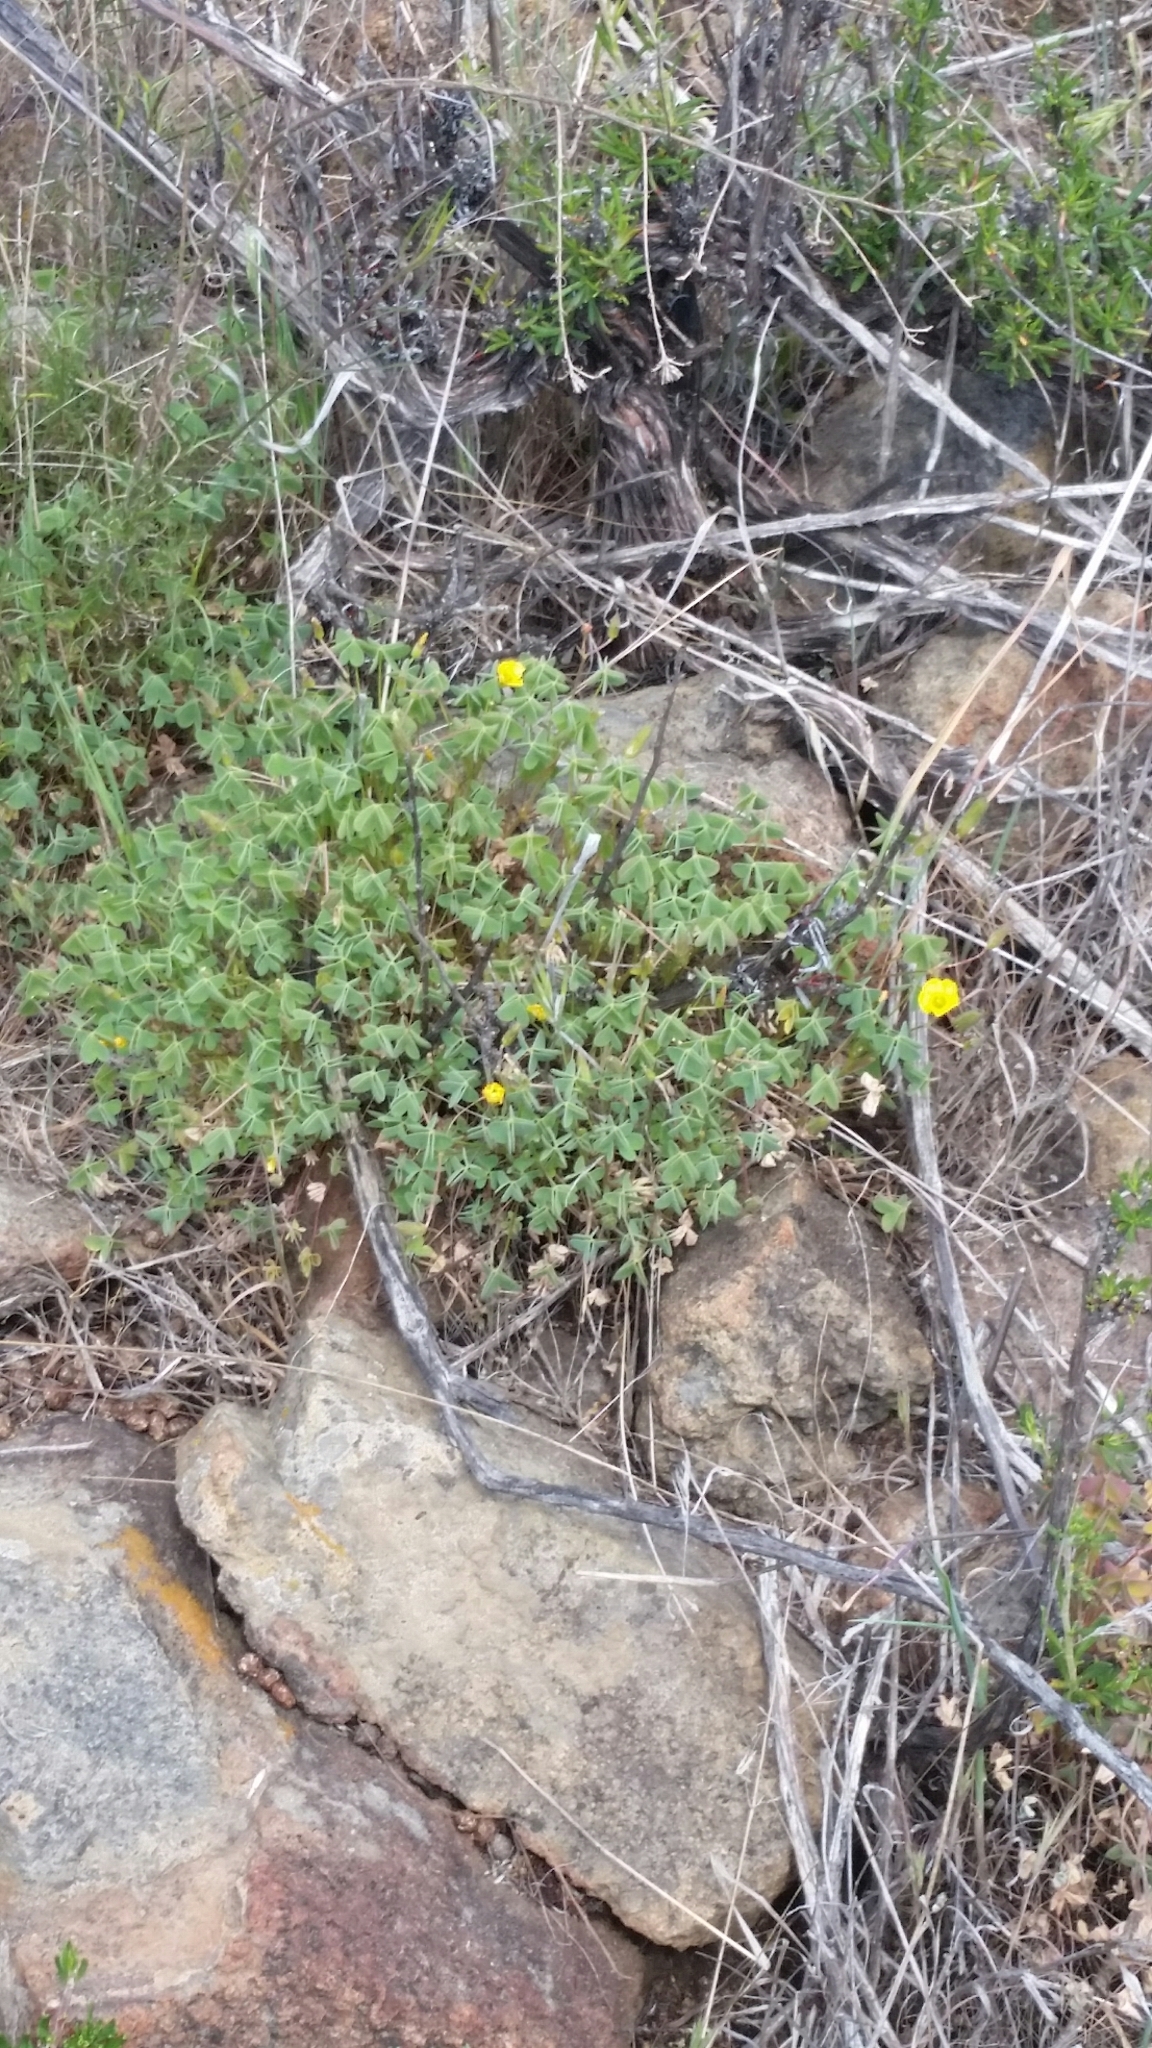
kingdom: Plantae
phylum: Tracheophyta
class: Magnoliopsida
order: Oxalidales
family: Oxalidaceae
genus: Oxalis
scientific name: Oxalis californica
